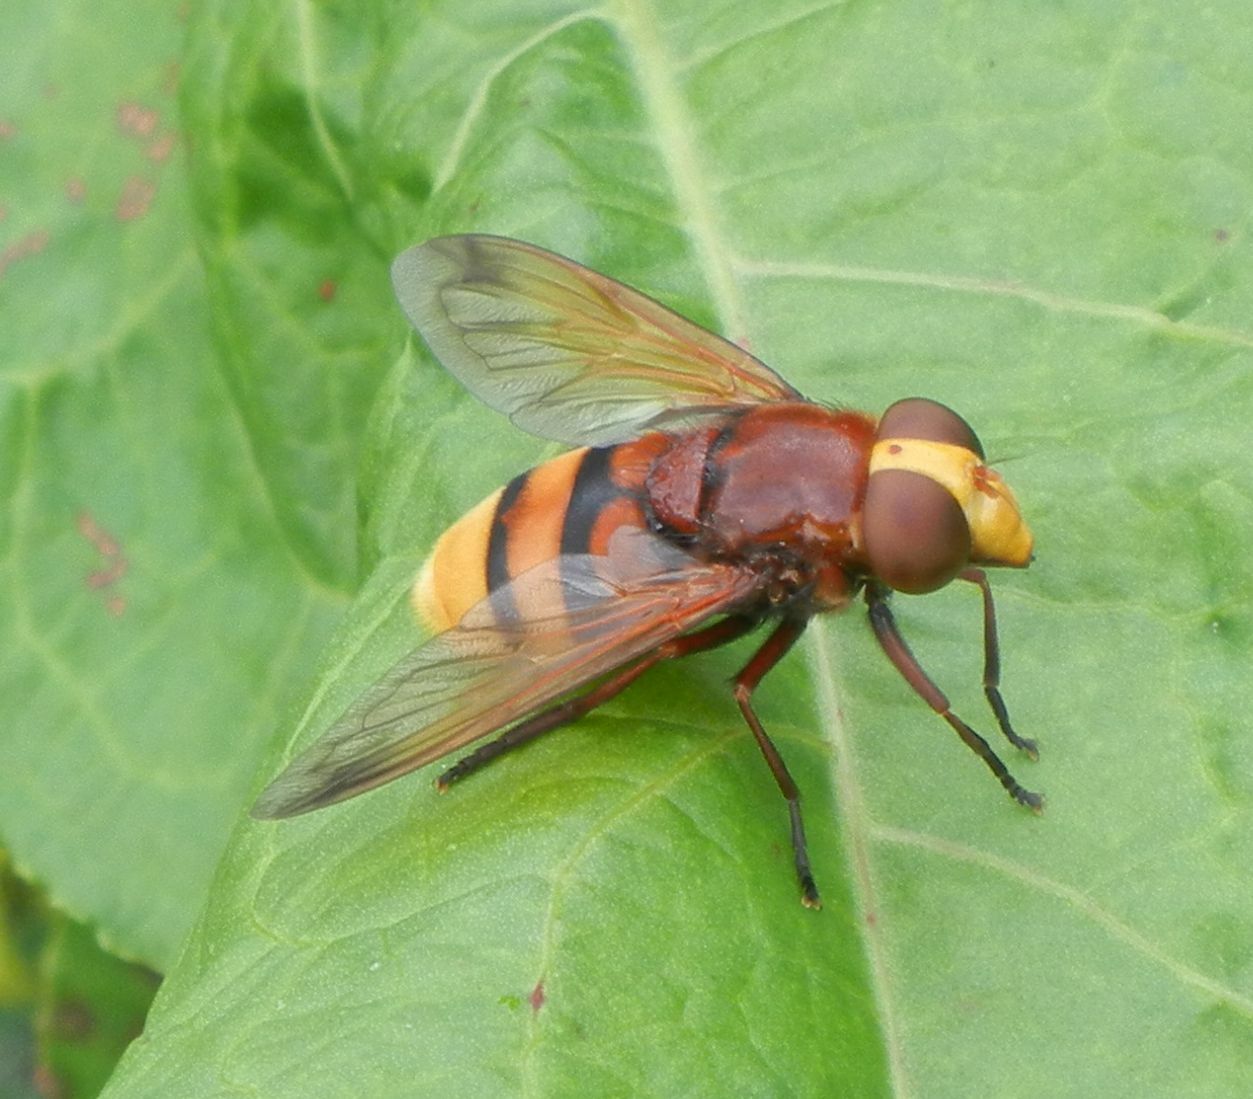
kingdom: Animalia
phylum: Arthropoda
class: Insecta
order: Diptera
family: Syrphidae
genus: Volucella
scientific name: Volucella zonaria
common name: Hornet hoverfly
